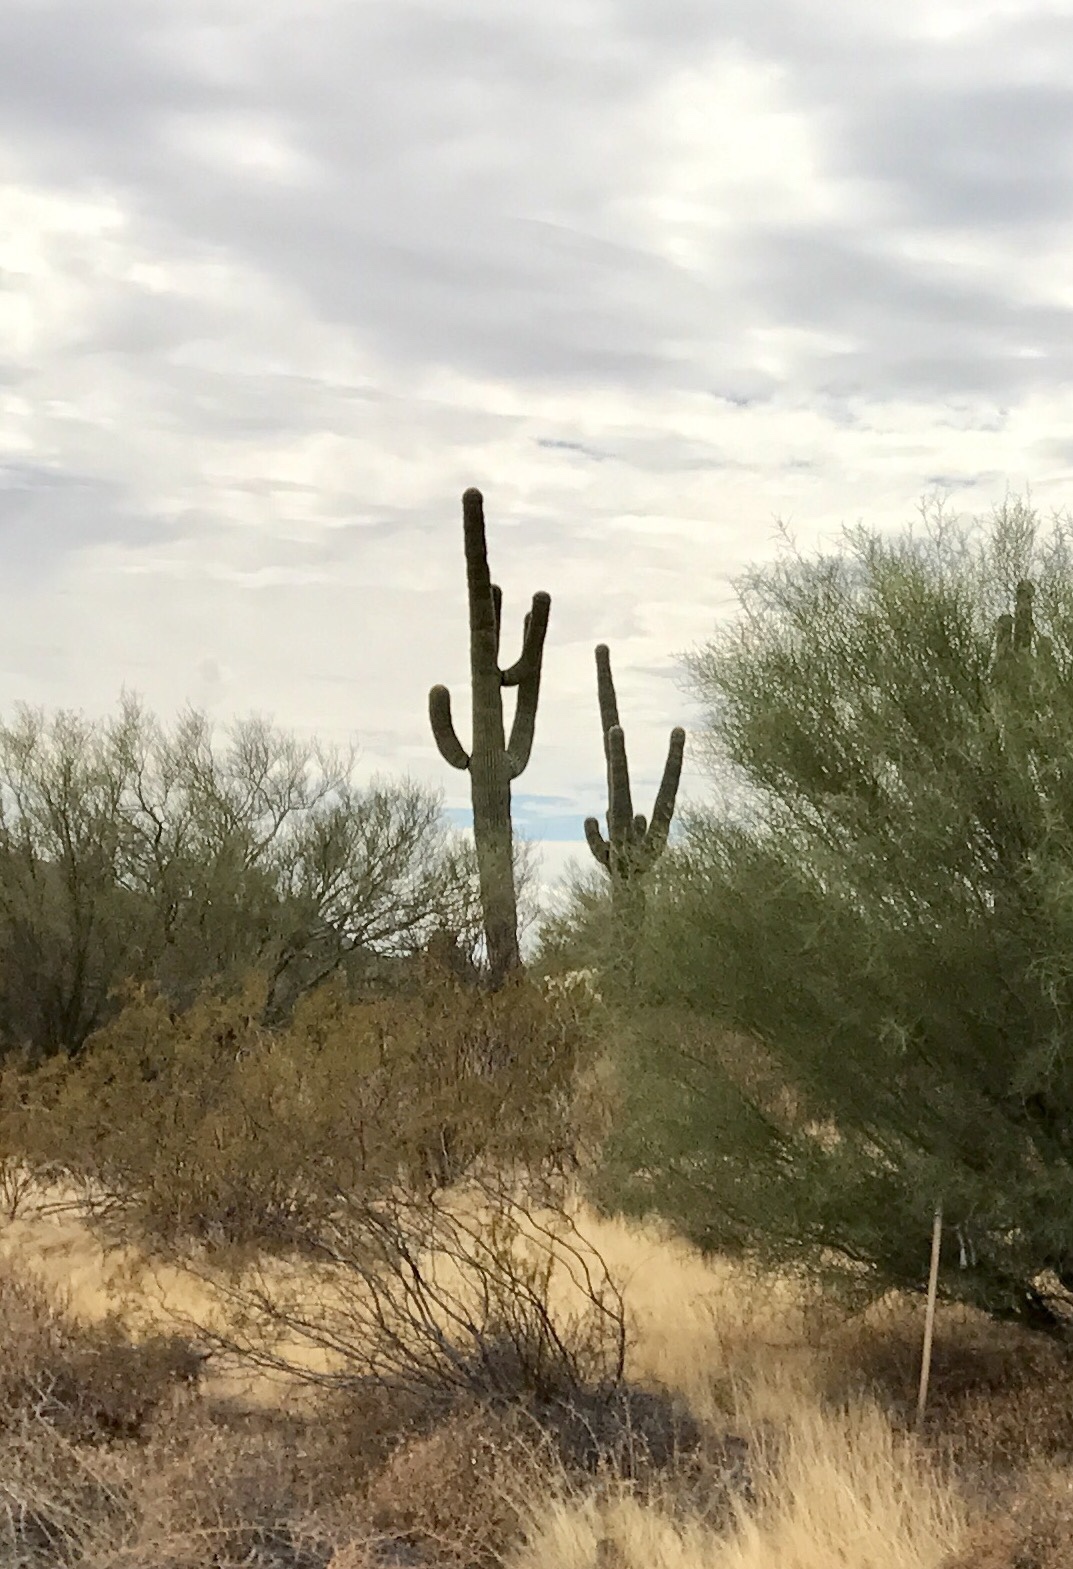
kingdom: Plantae
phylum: Tracheophyta
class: Magnoliopsida
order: Caryophyllales
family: Cactaceae
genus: Carnegiea
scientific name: Carnegiea gigantea
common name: Saguaro
